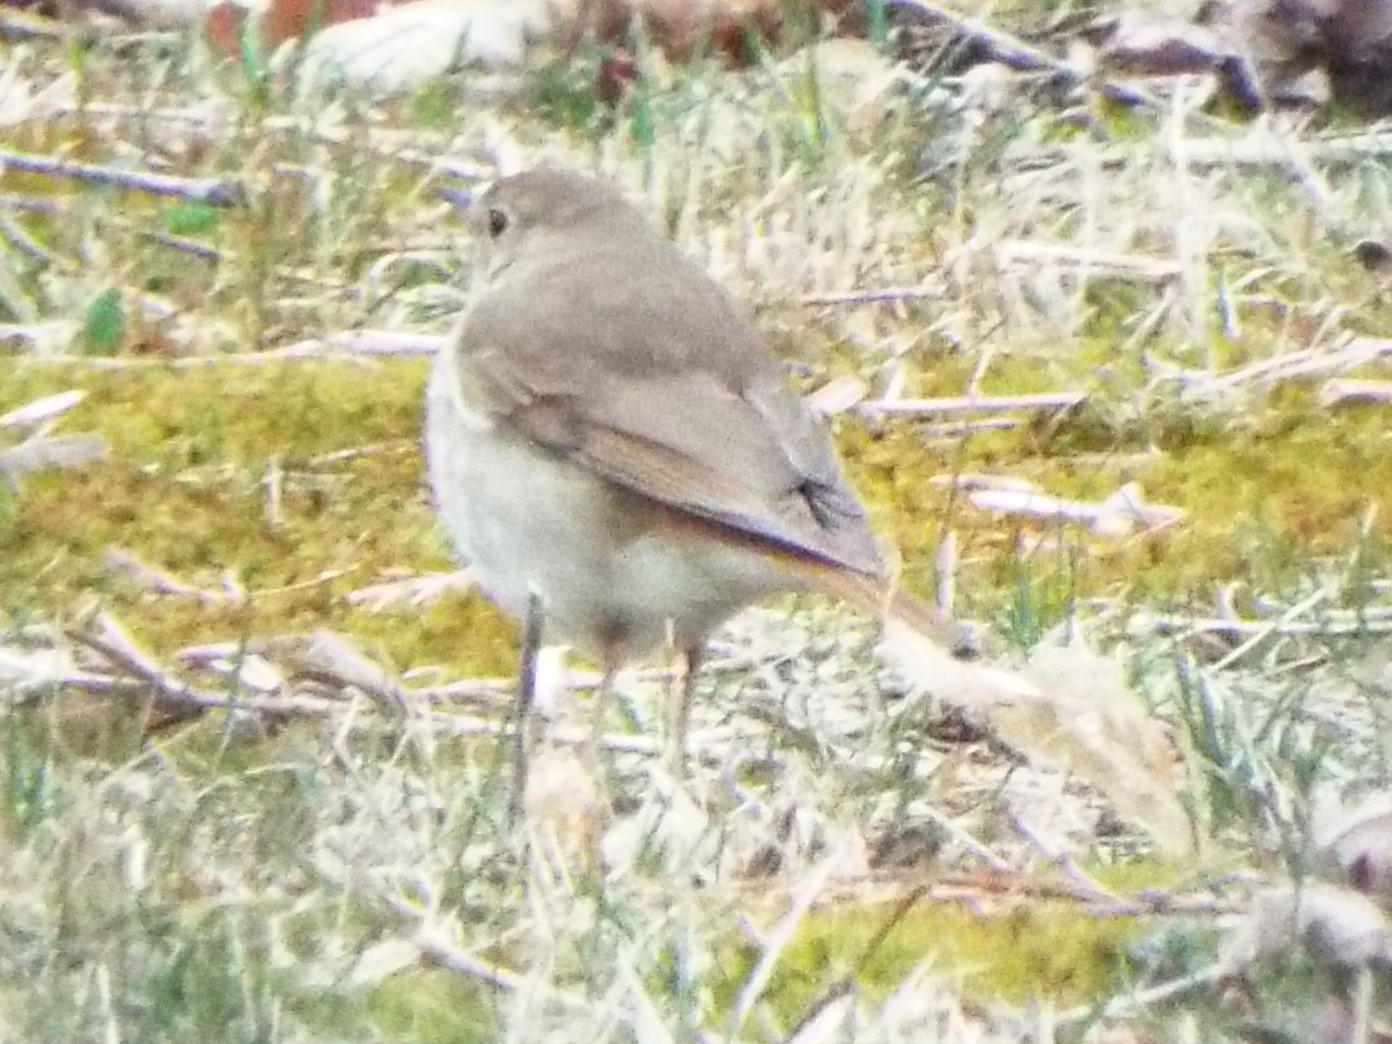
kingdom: Animalia
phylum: Chordata
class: Aves
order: Passeriformes
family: Turdidae
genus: Catharus
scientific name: Catharus guttatus
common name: Hermit thrush
